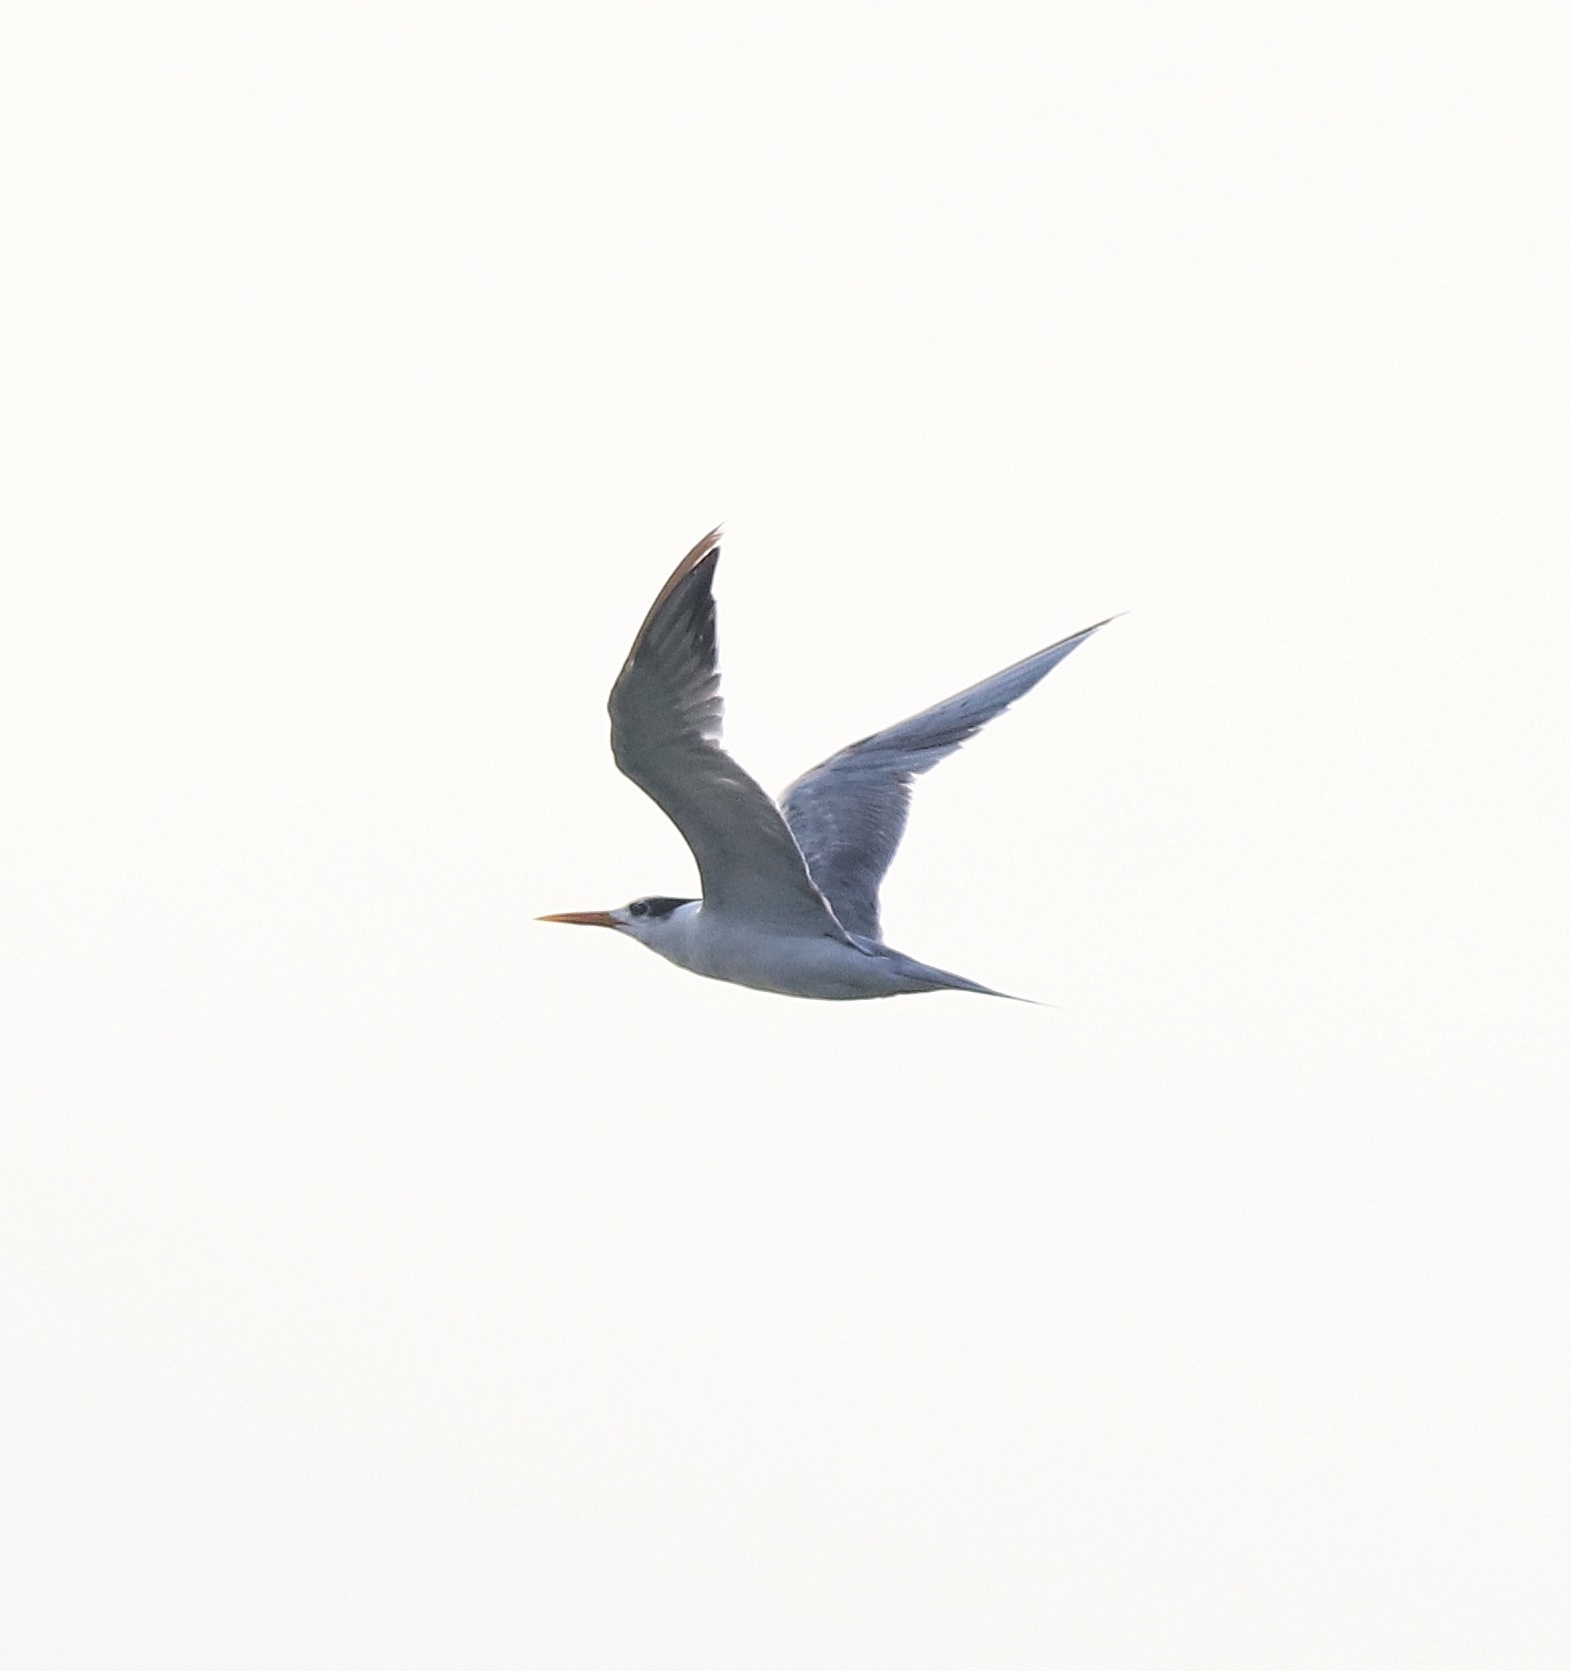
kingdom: Animalia
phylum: Chordata
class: Aves
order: Charadriiformes
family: Laridae
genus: Thalasseus
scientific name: Thalasseus bengalensis
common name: Lesser crested tern
